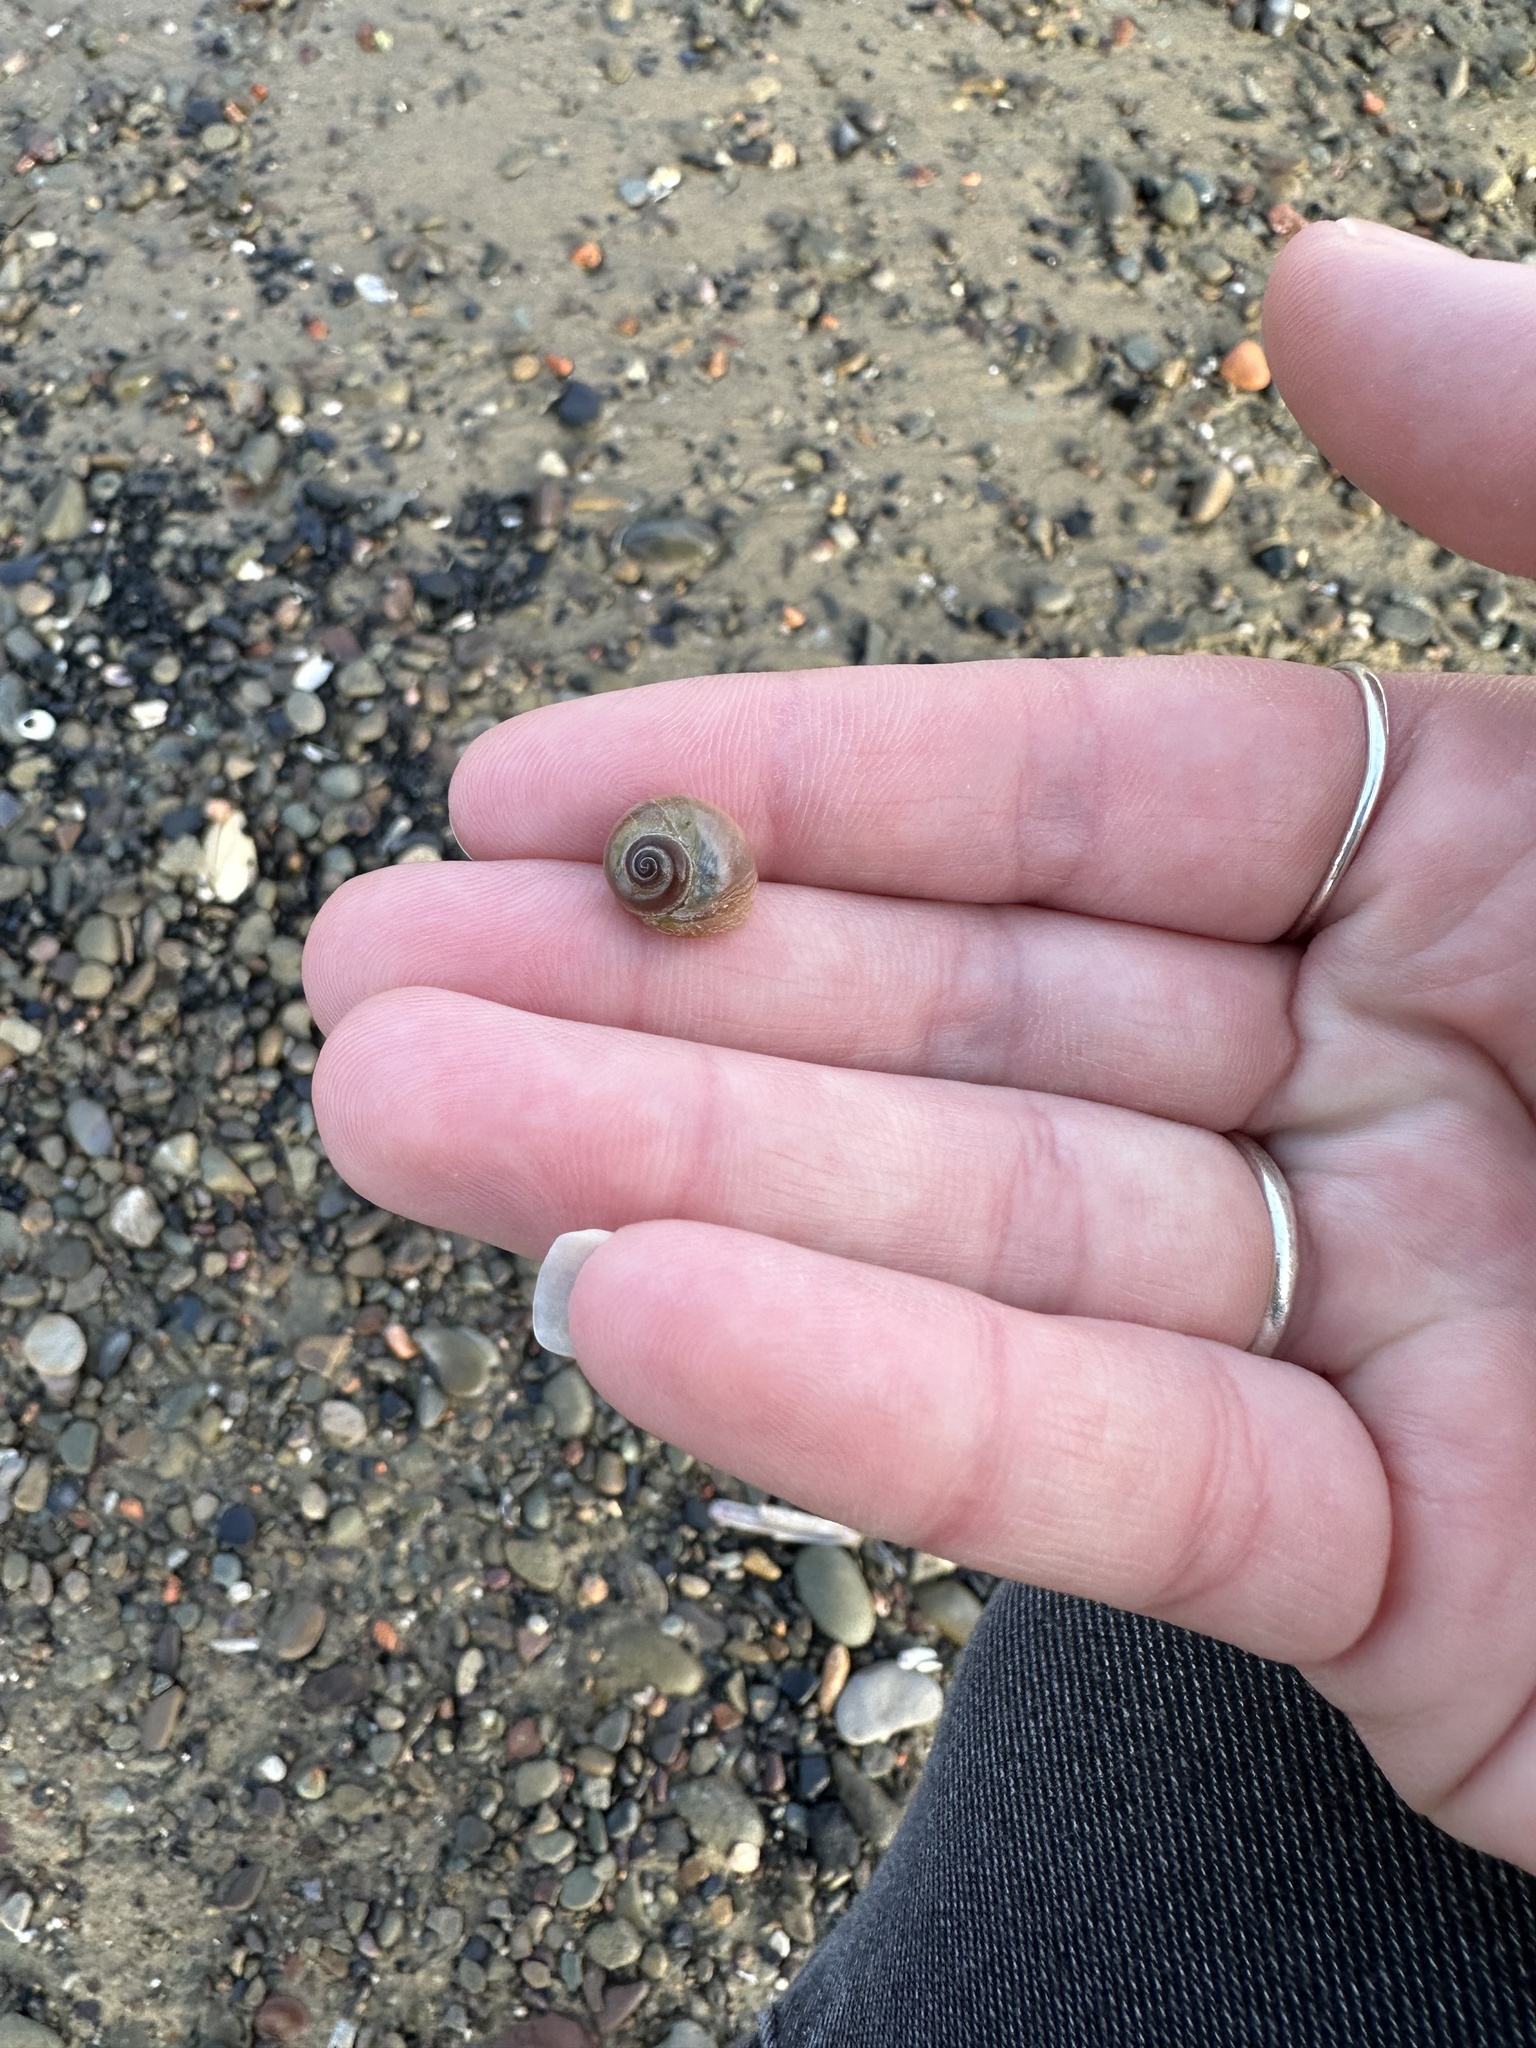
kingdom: Animalia
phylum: Mollusca
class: Gastropoda
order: Littorinimorpha
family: Naticidae
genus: Euspira
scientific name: Euspira heros
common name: Common northern moonsnail
